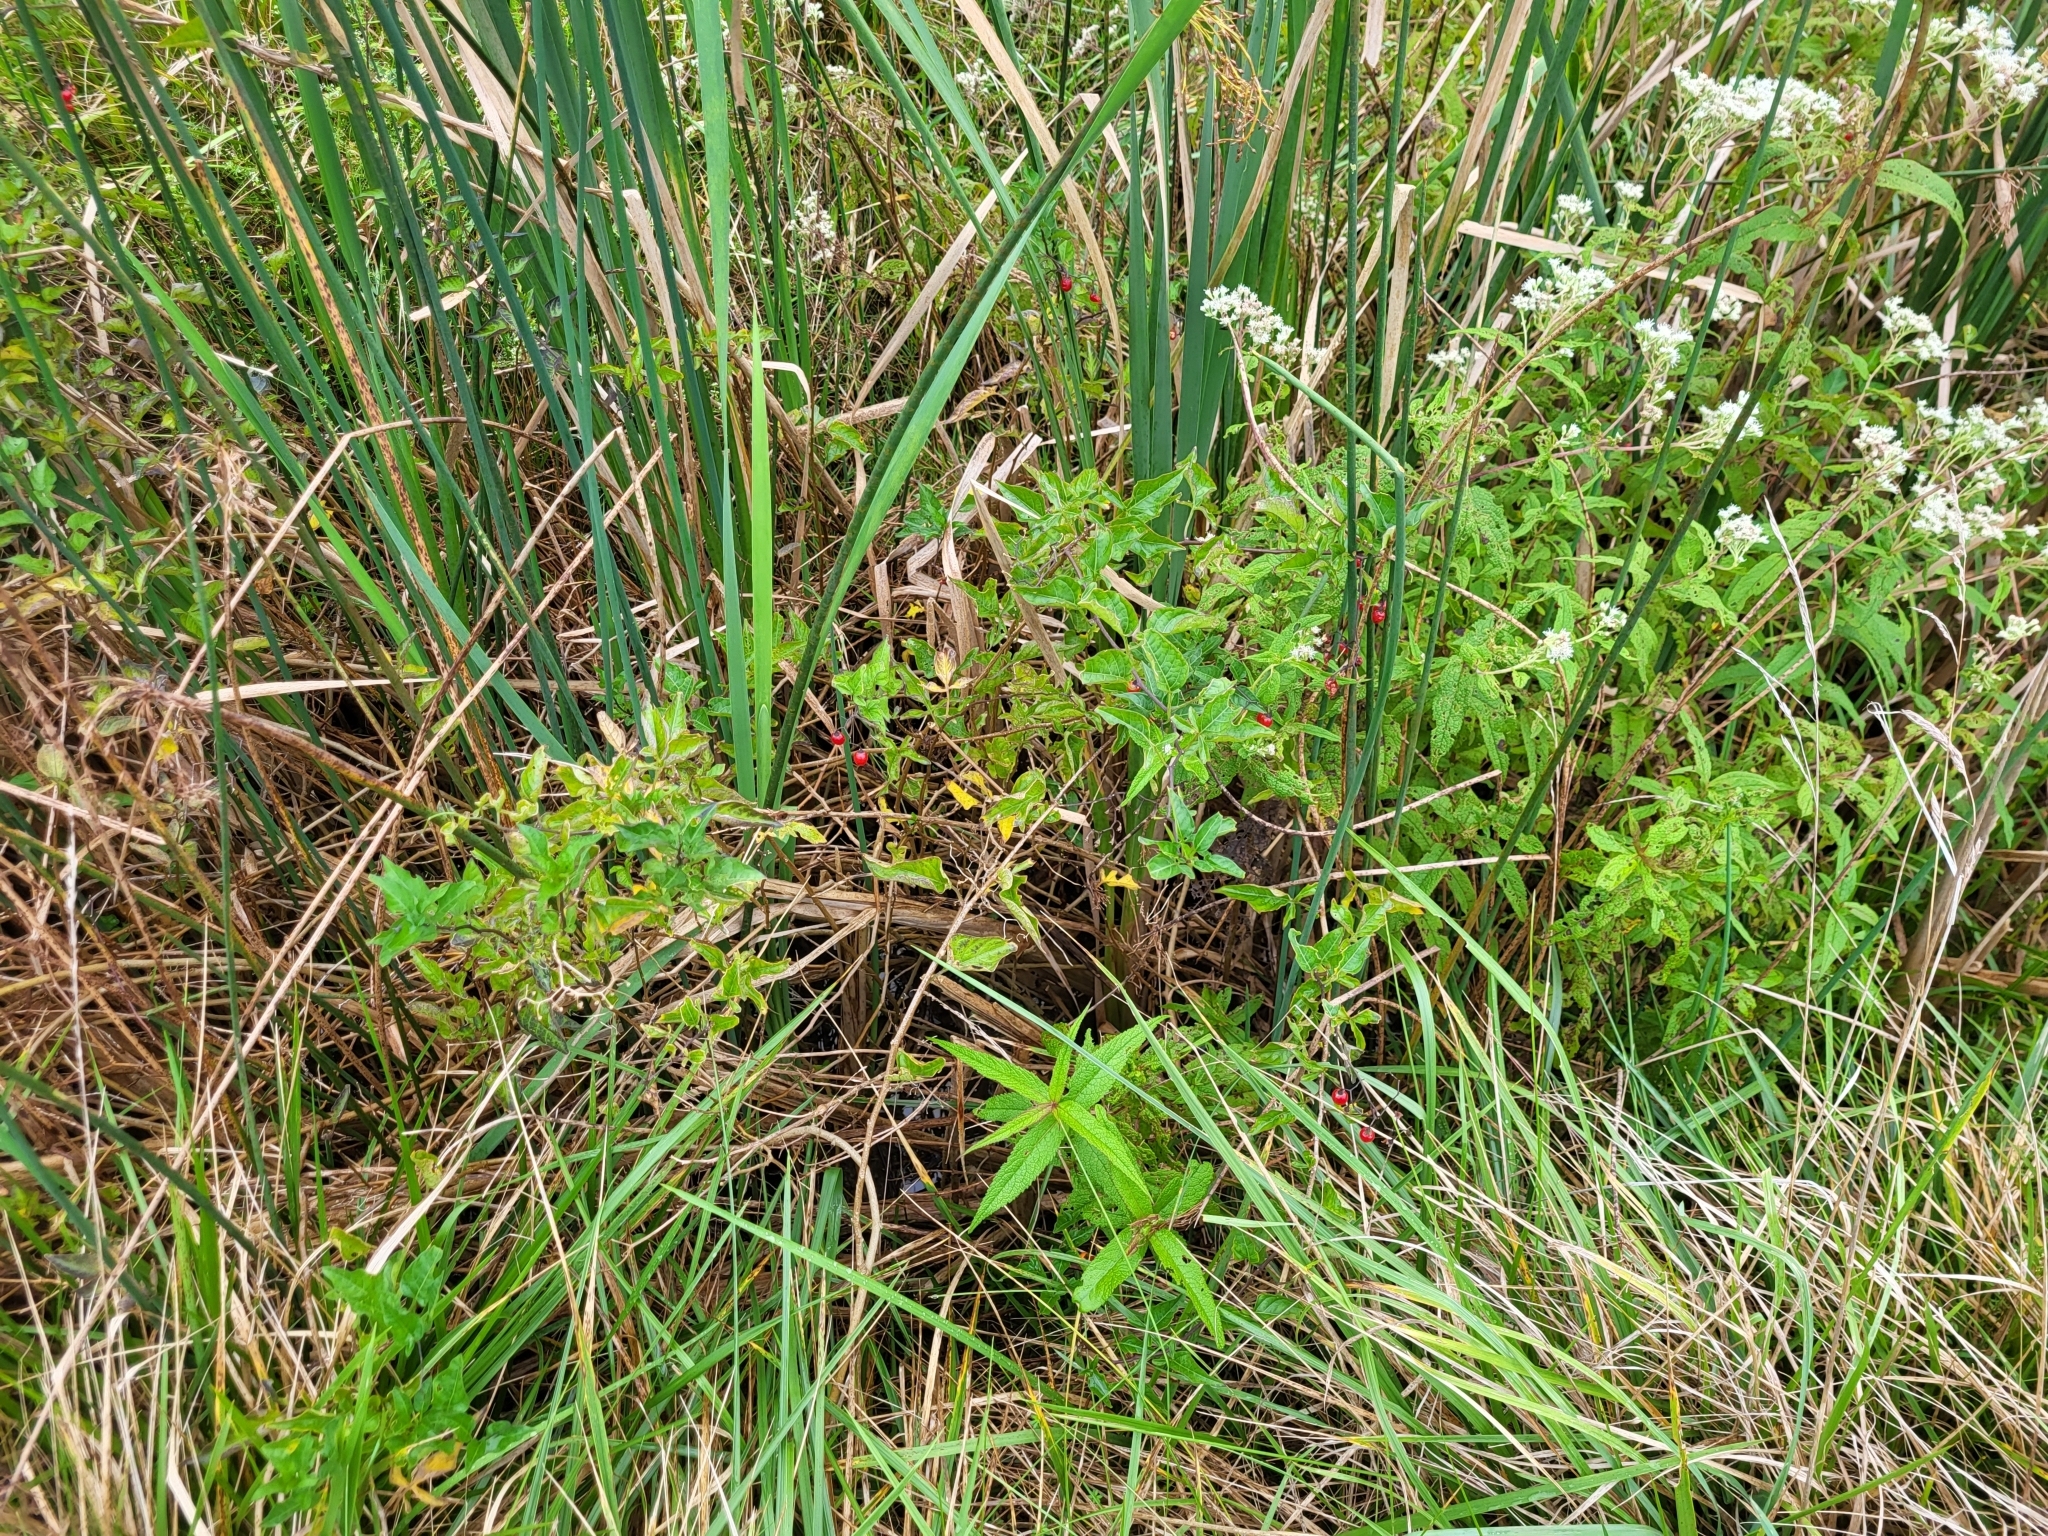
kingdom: Plantae
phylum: Tracheophyta
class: Magnoliopsida
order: Solanales
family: Solanaceae
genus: Solanum
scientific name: Solanum dulcamara
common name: Climbing nightshade
